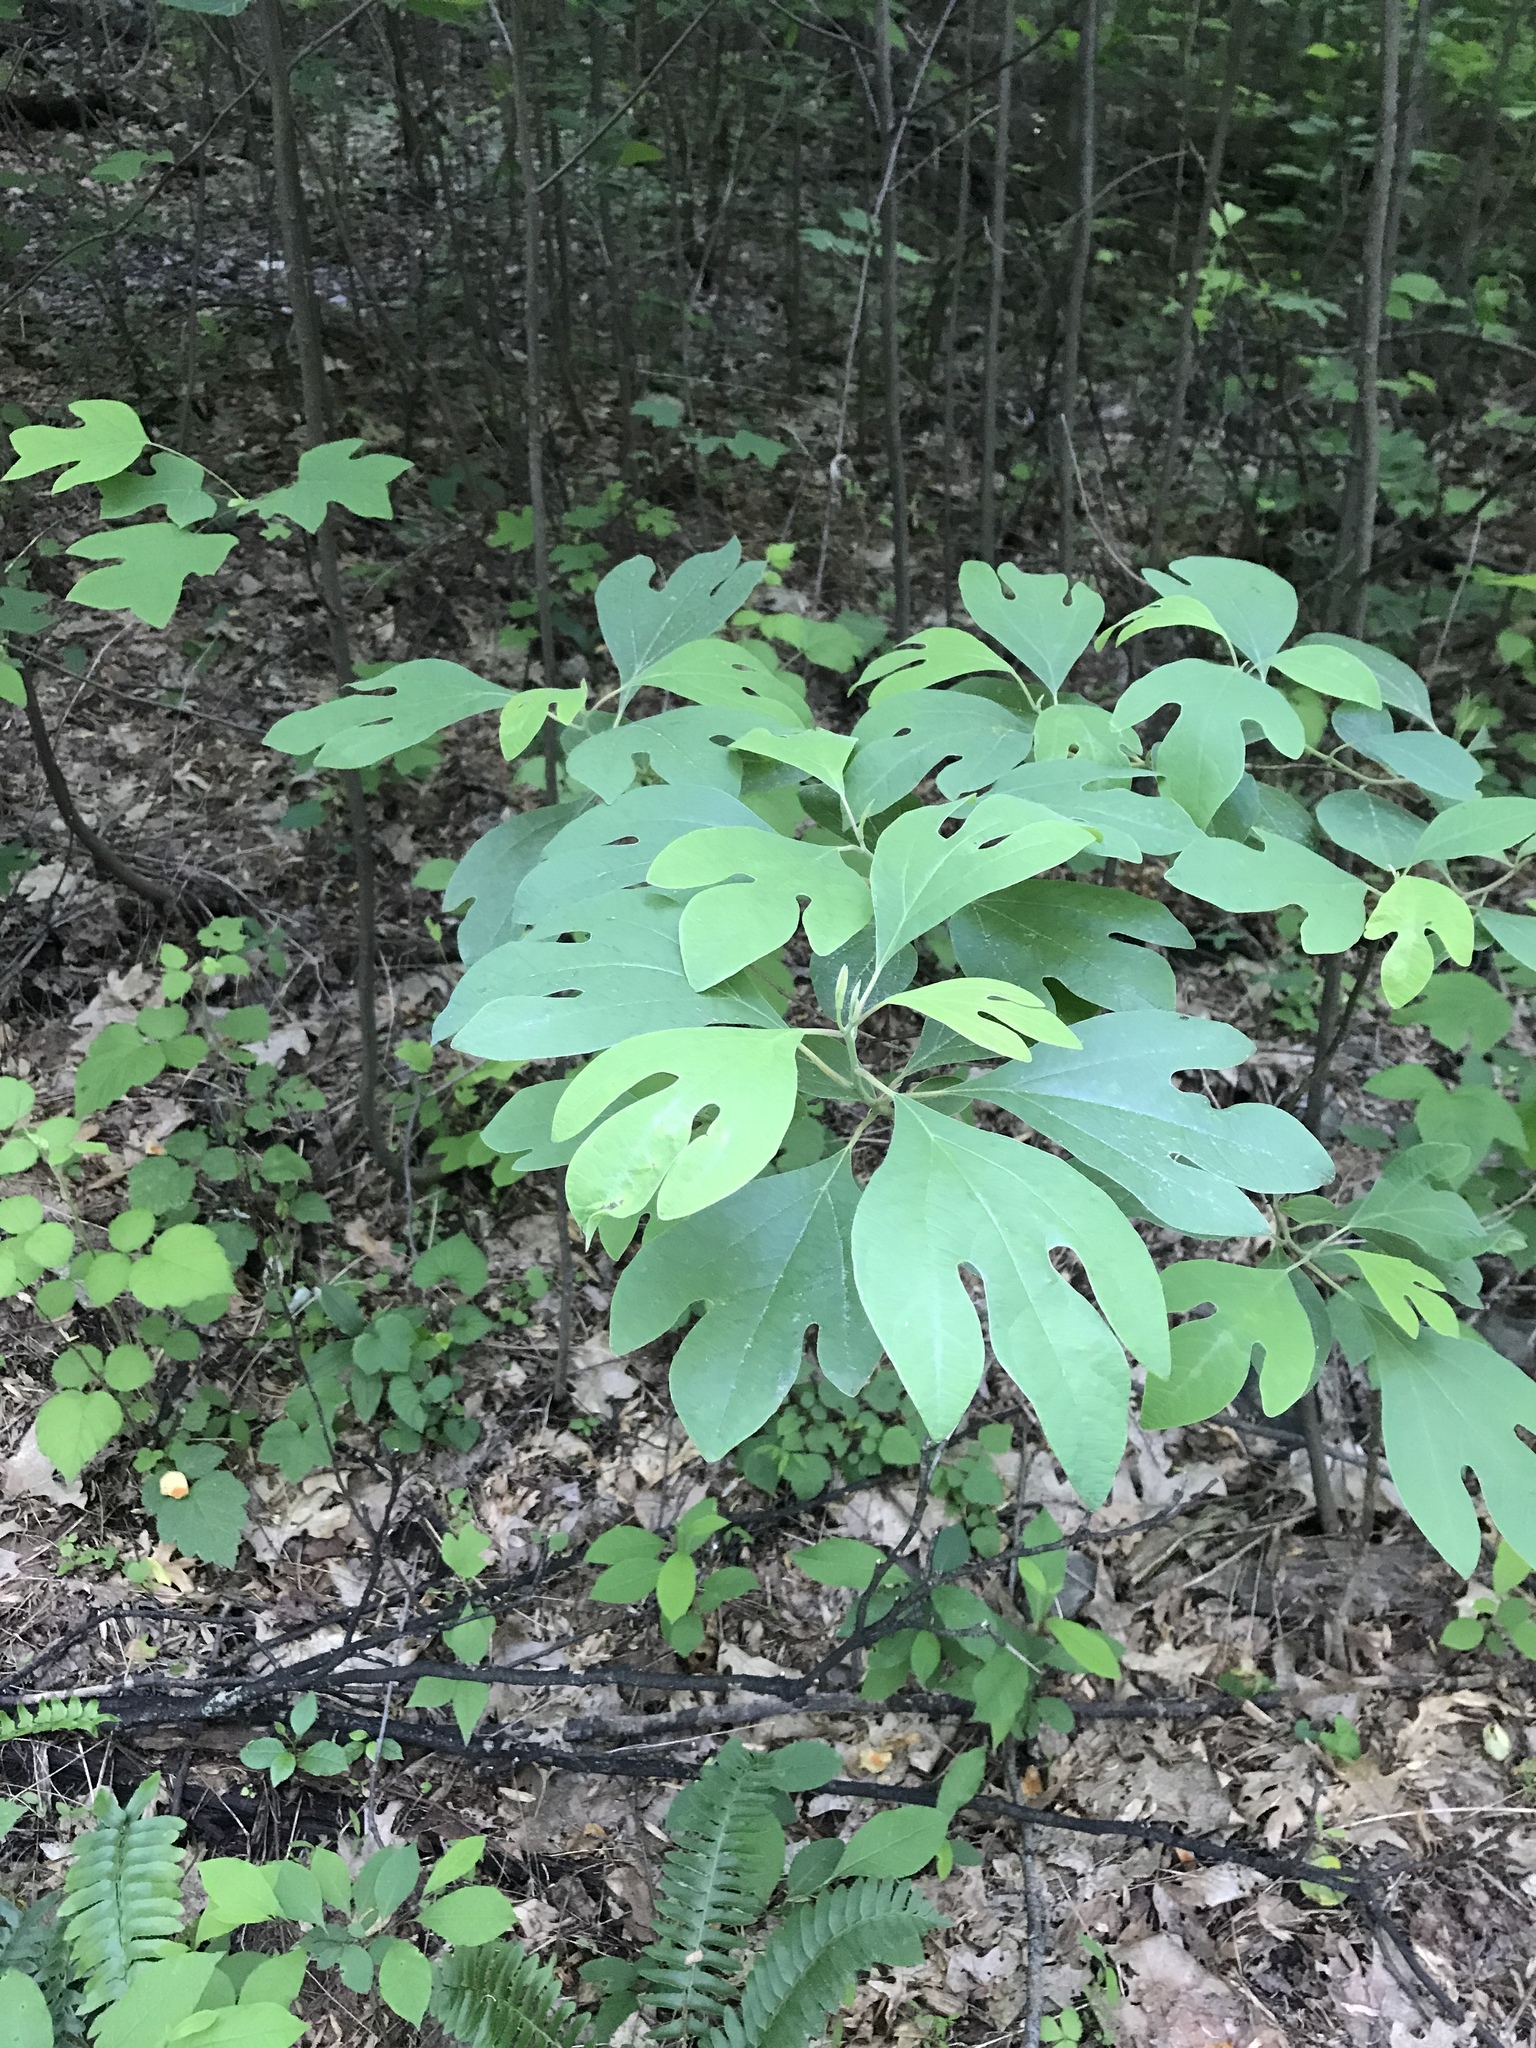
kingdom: Plantae
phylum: Tracheophyta
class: Magnoliopsida
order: Laurales
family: Lauraceae
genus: Sassafras
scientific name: Sassafras albidum
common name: Sassafras
